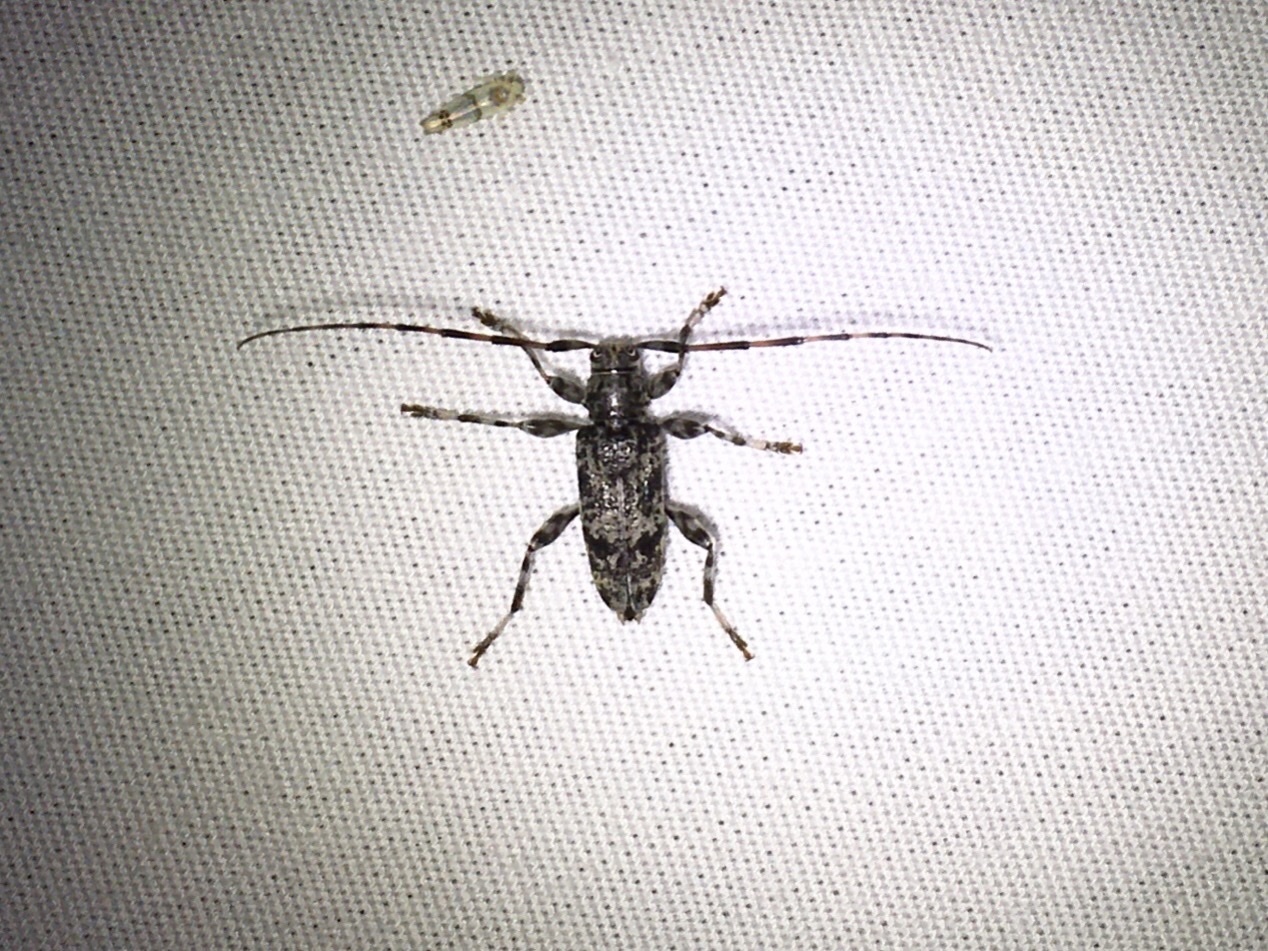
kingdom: Animalia
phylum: Arthropoda
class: Insecta
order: Coleoptera
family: Cerambycidae
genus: Graphisurus
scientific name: Graphisurus fasciatus
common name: Banded graphisurus
